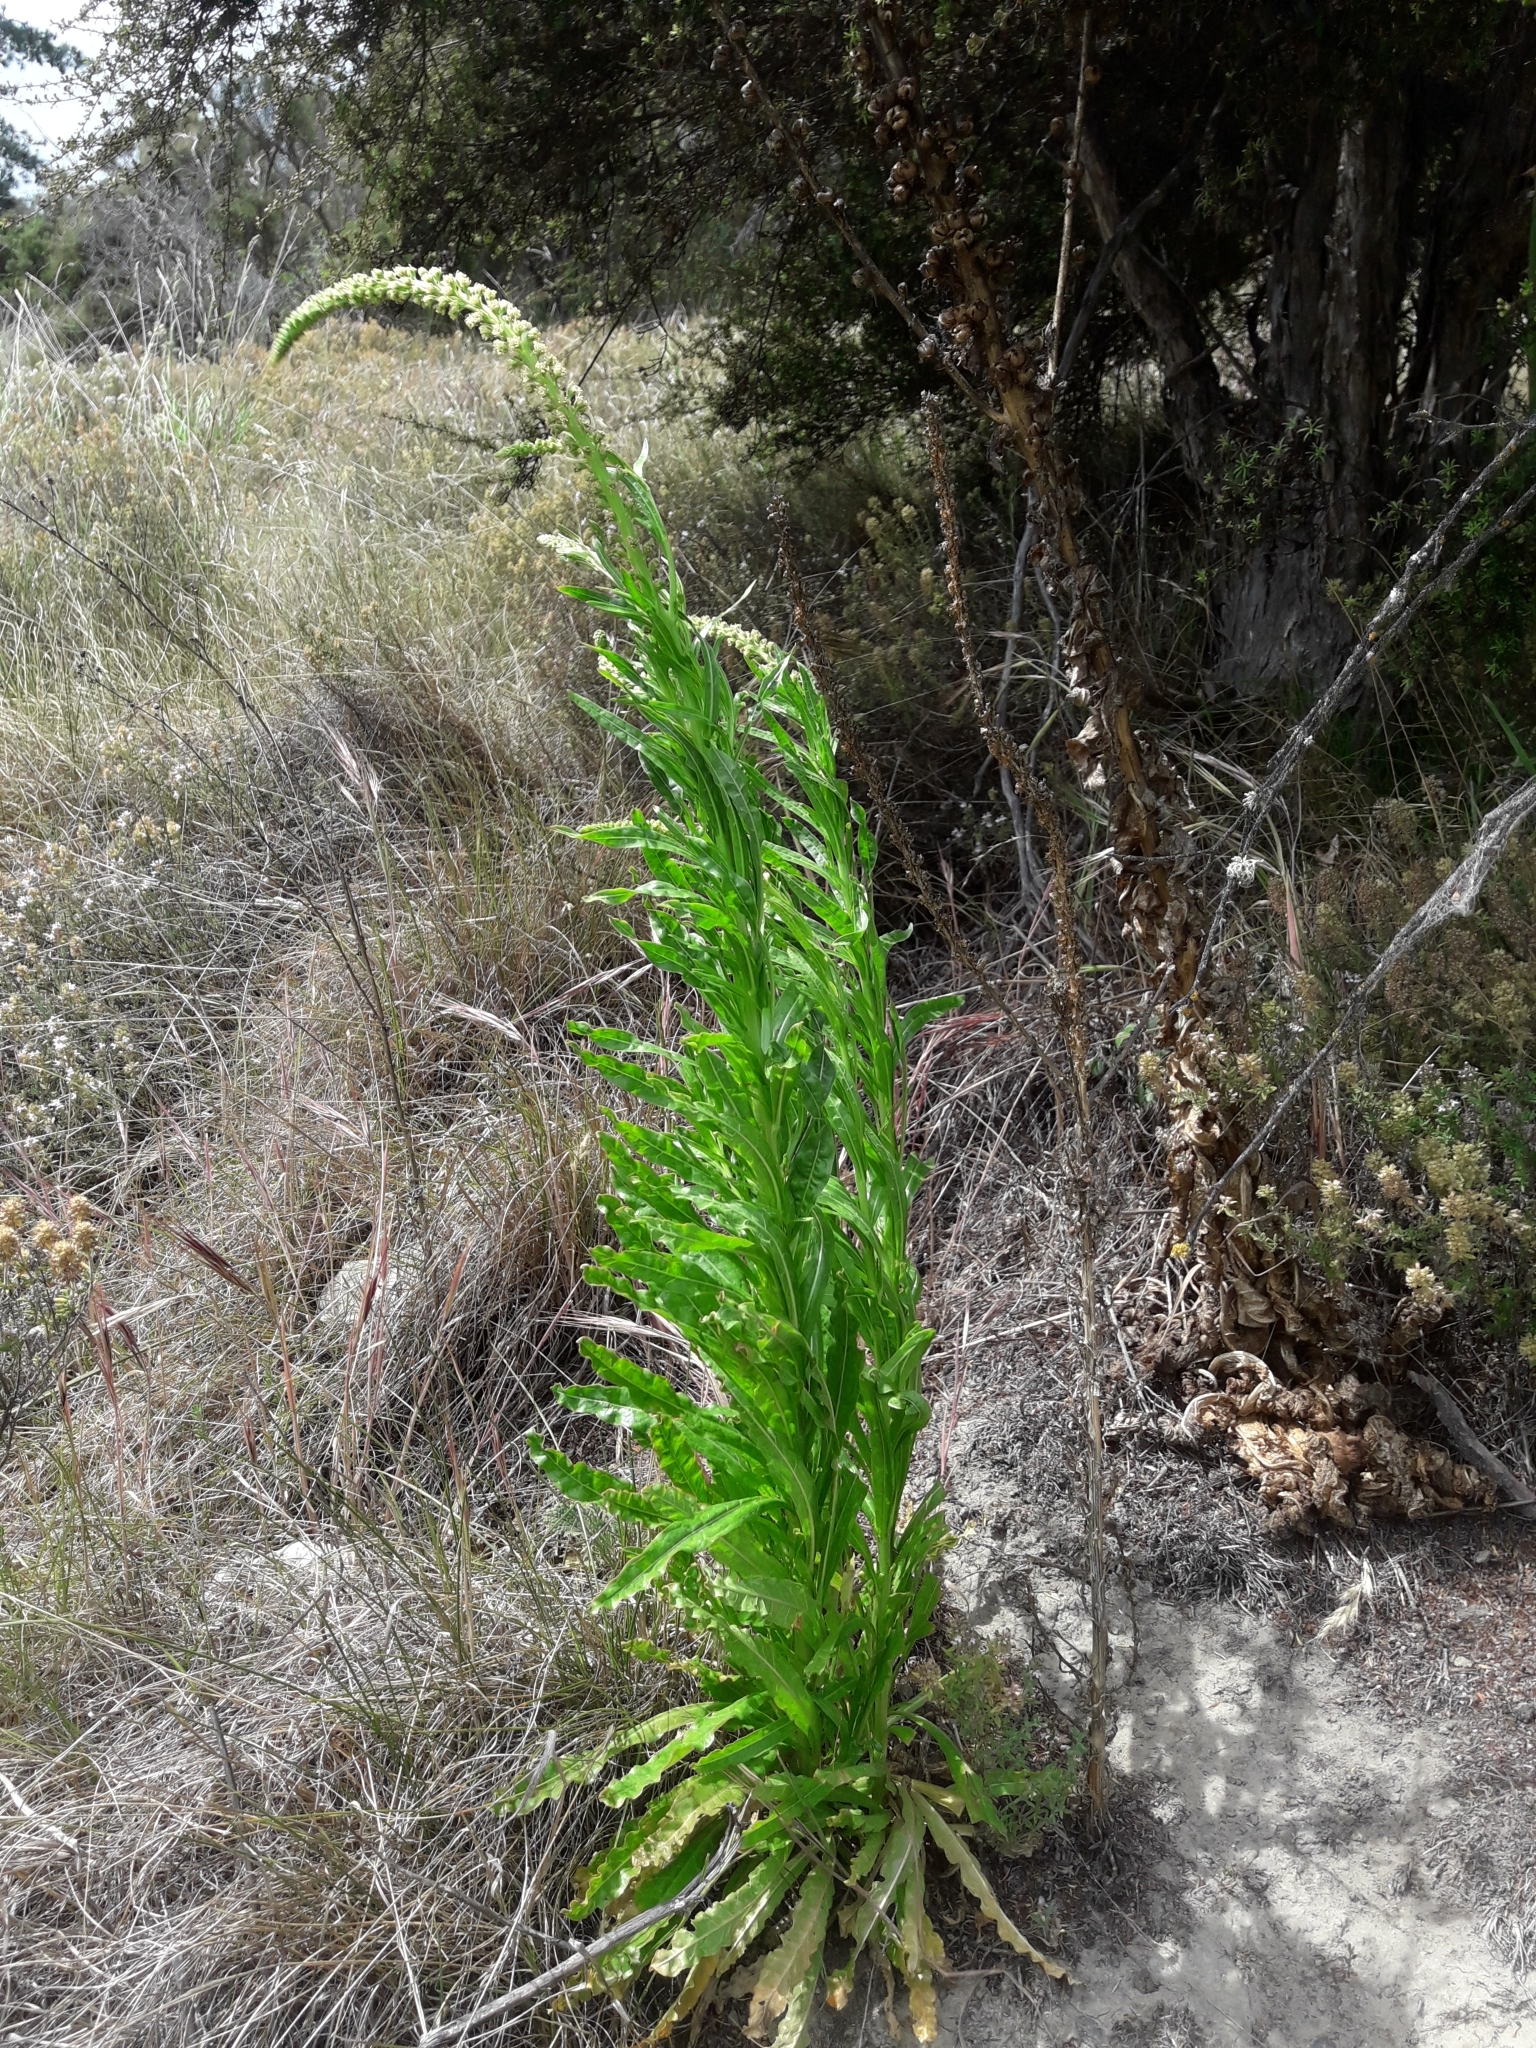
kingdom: Plantae
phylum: Tracheophyta
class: Magnoliopsida
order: Brassicales
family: Resedaceae
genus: Reseda
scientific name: Reseda luteola
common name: Weld
